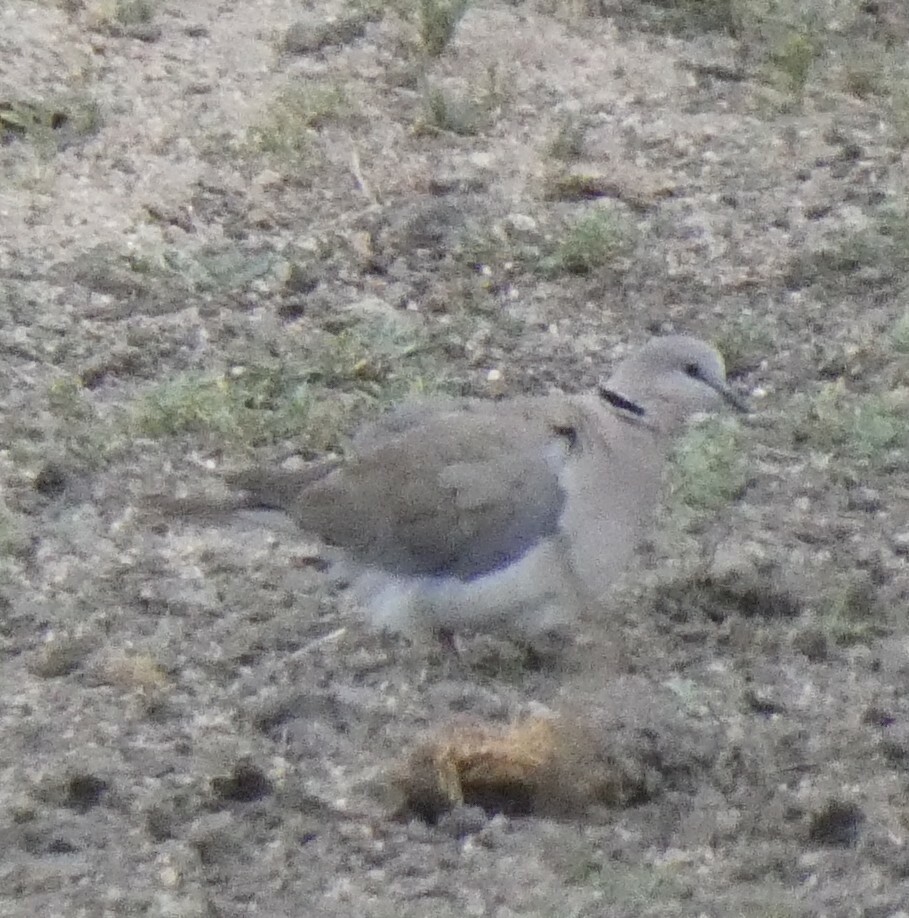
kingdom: Animalia
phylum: Chordata
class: Aves
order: Columbiformes
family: Columbidae
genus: Streptopelia
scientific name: Streptopelia capicola
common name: Ring-necked dove
